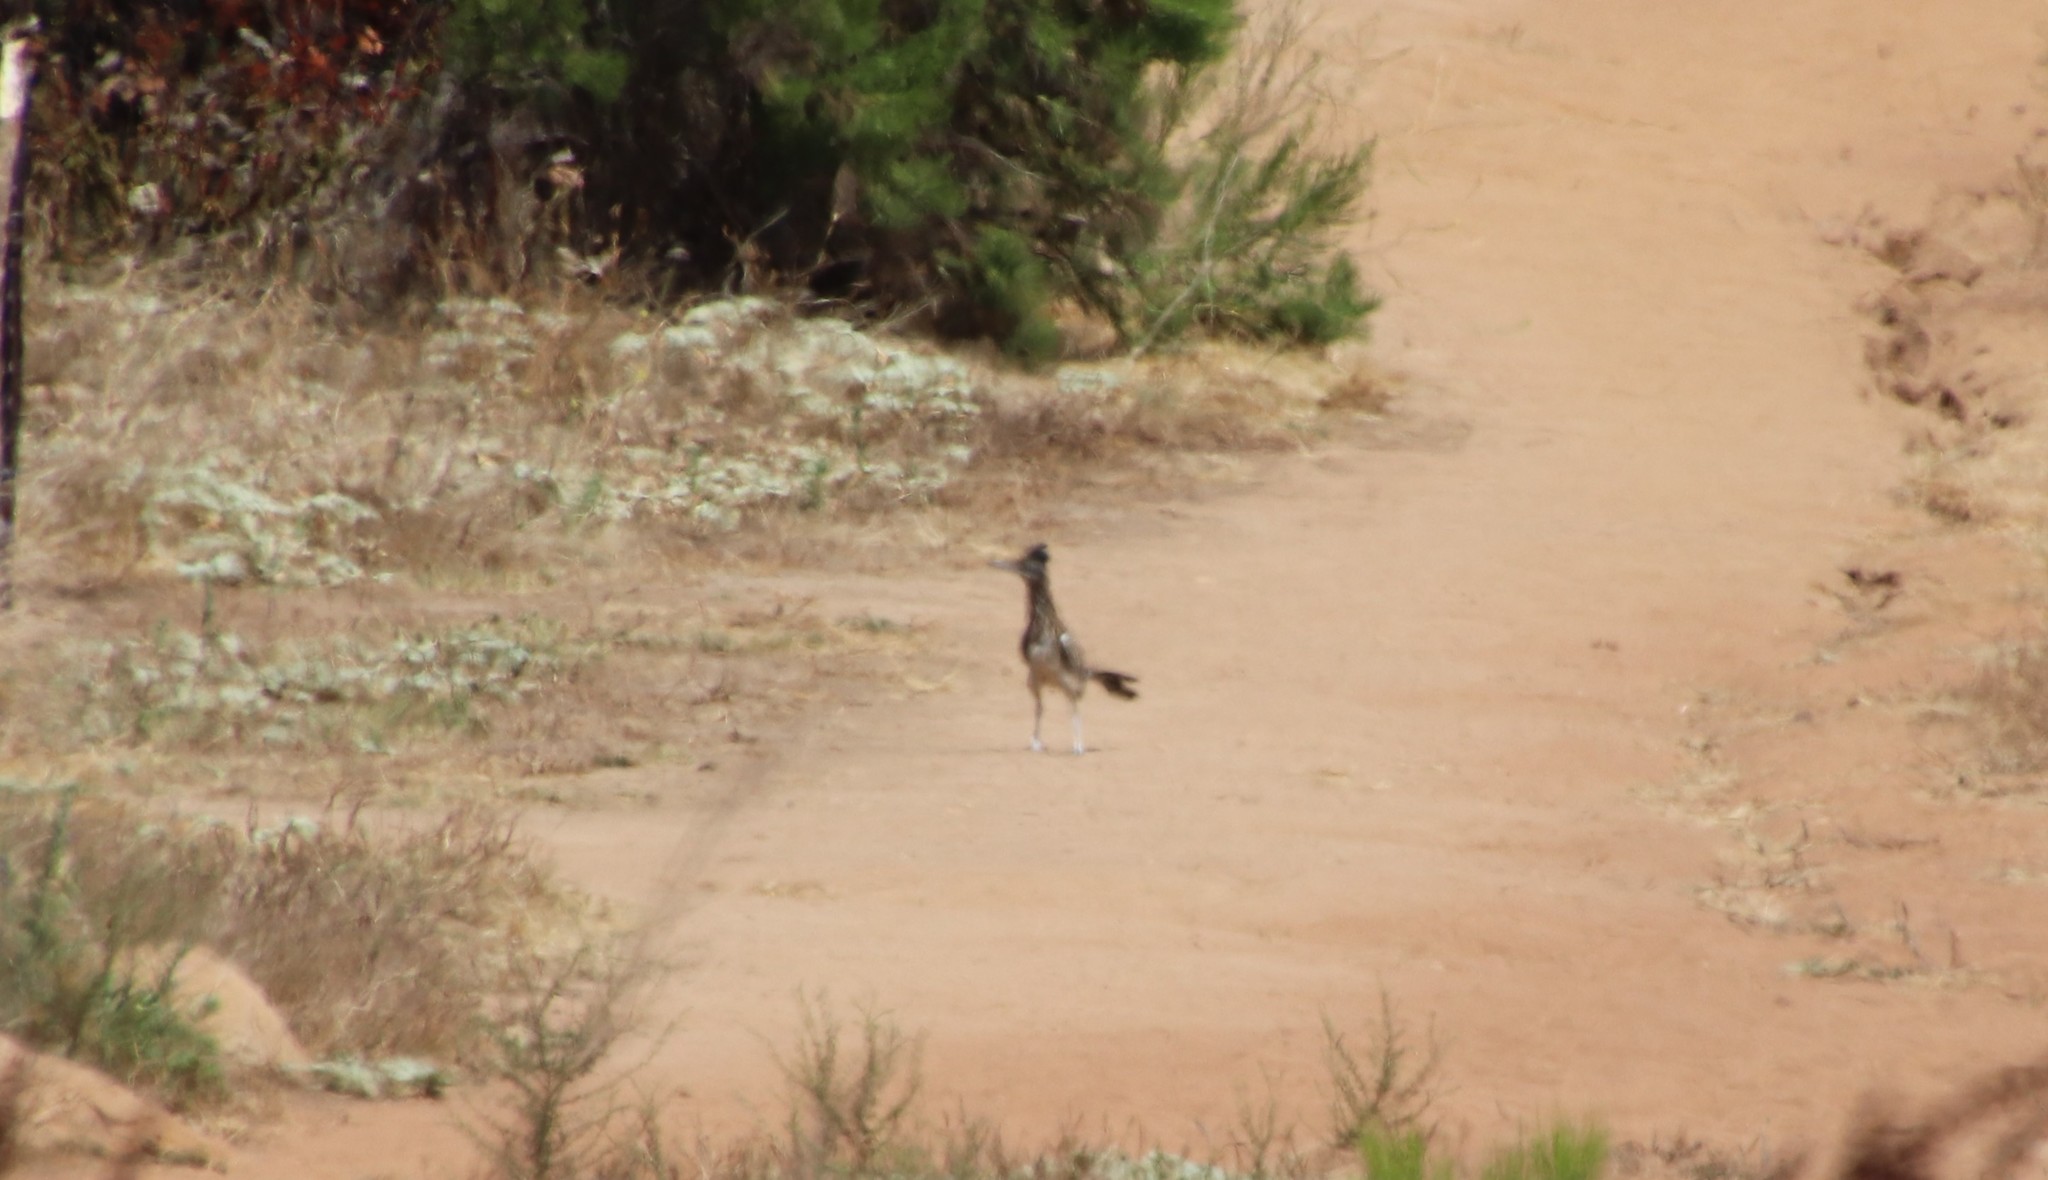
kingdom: Animalia
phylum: Chordata
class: Aves
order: Cuculiformes
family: Cuculidae
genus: Geococcyx
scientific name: Geococcyx californianus
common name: Greater roadrunner
